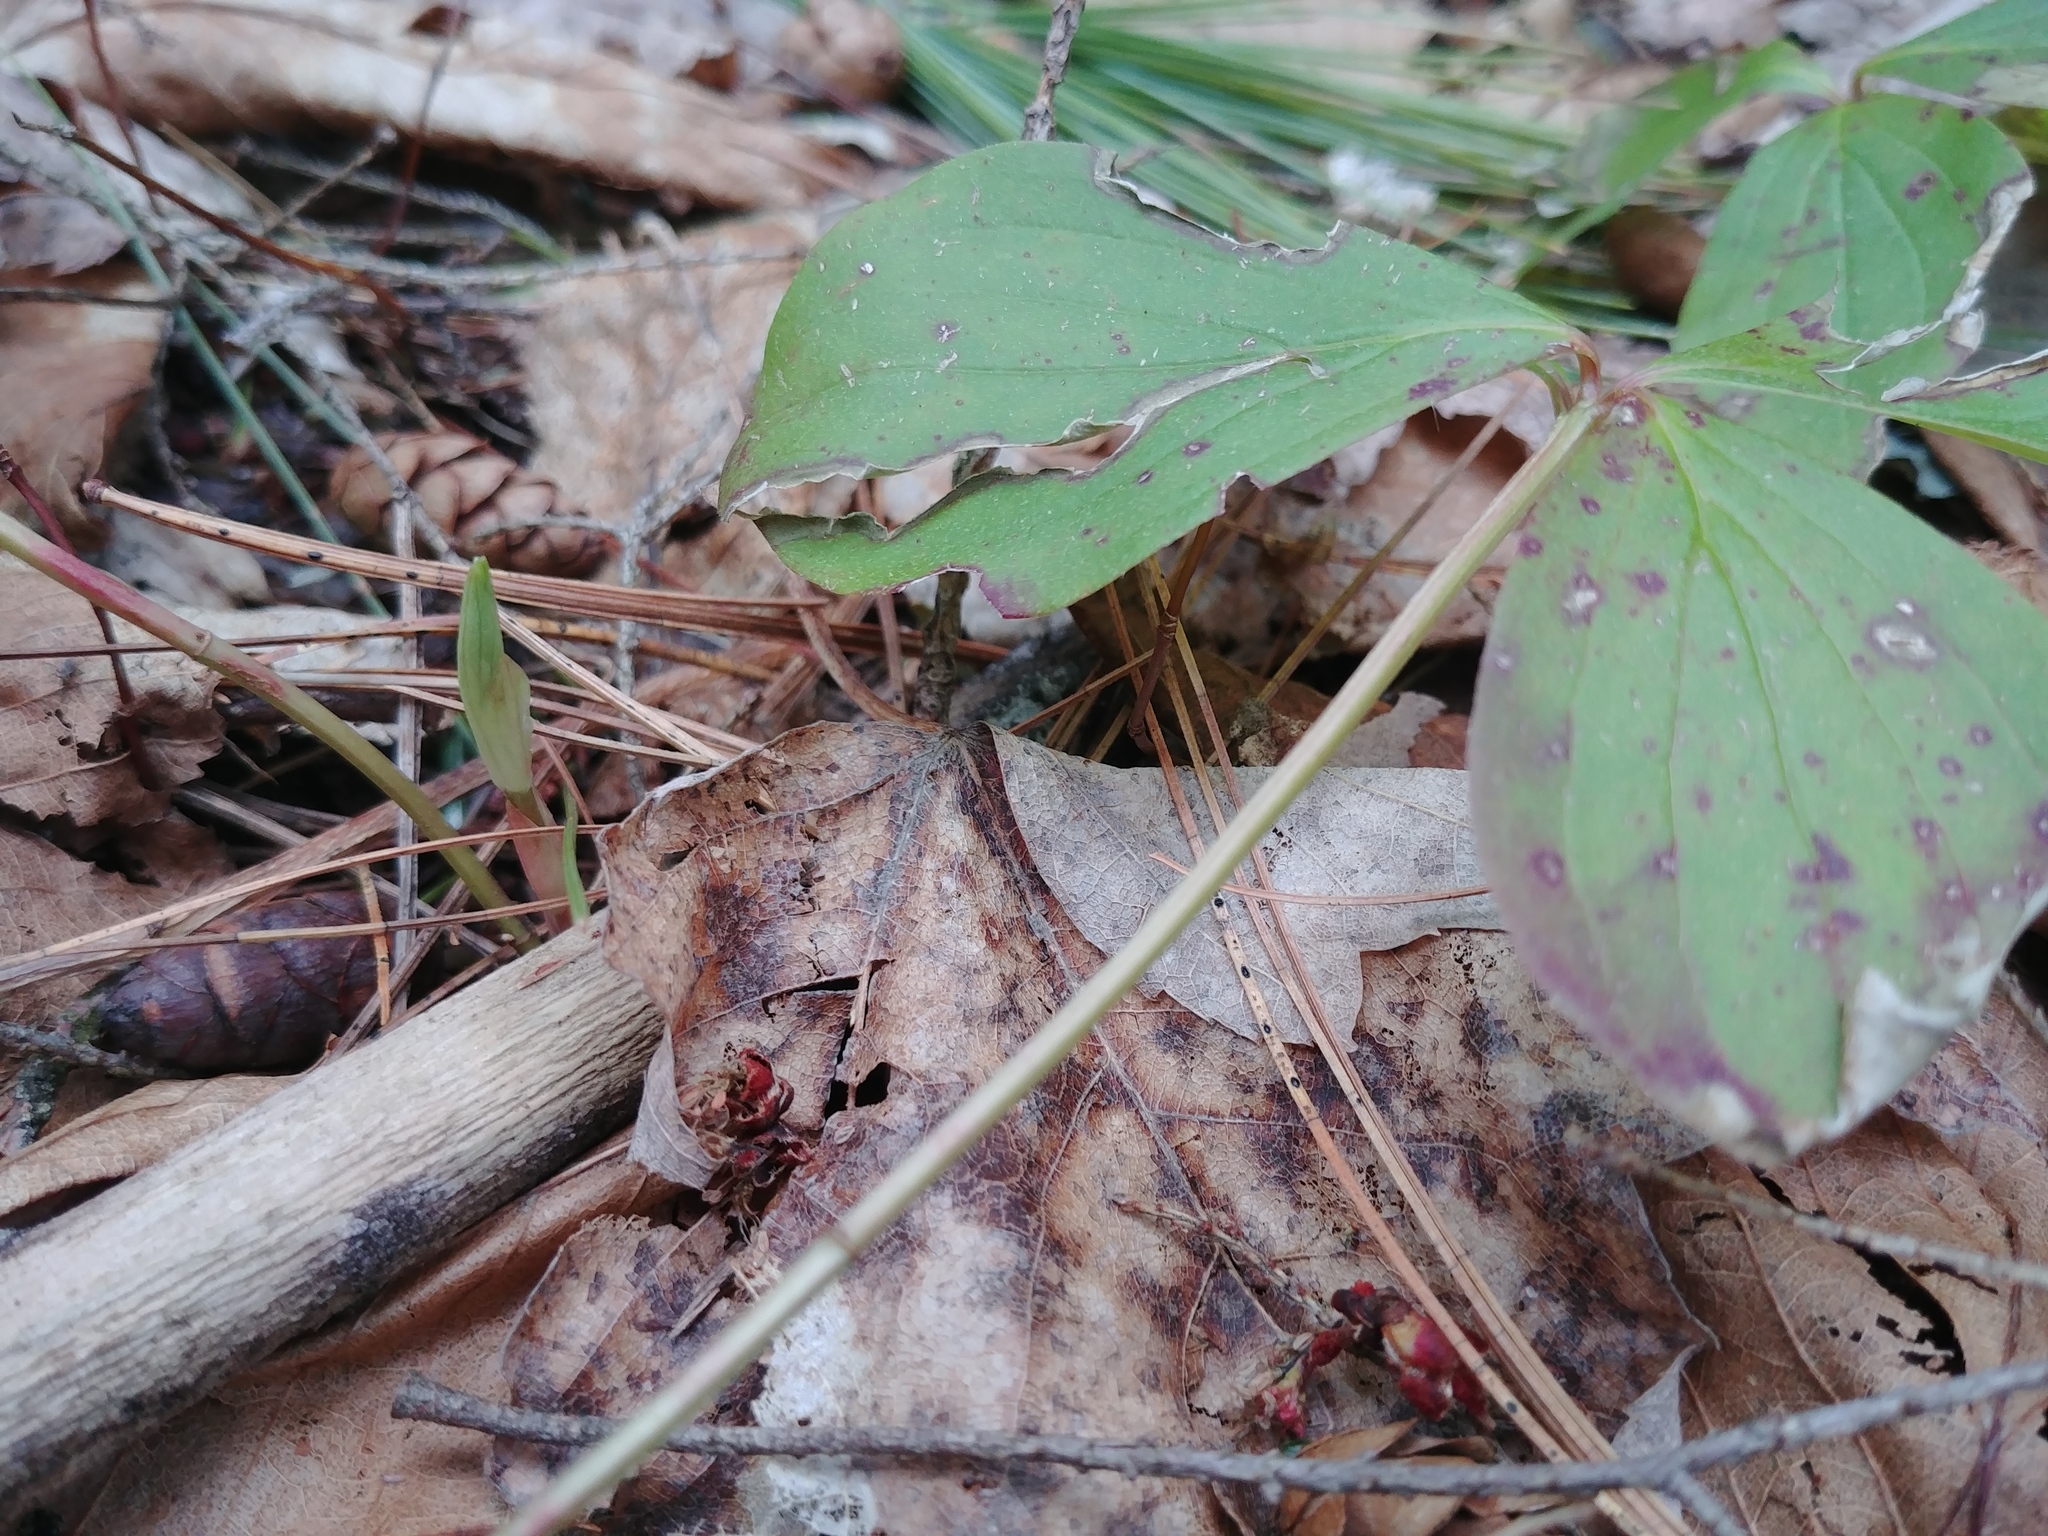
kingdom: Plantae
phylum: Tracheophyta
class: Magnoliopsida
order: Cornales
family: Cornaceae
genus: Cornus
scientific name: Cornus canadensis
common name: Creeping dogwood
